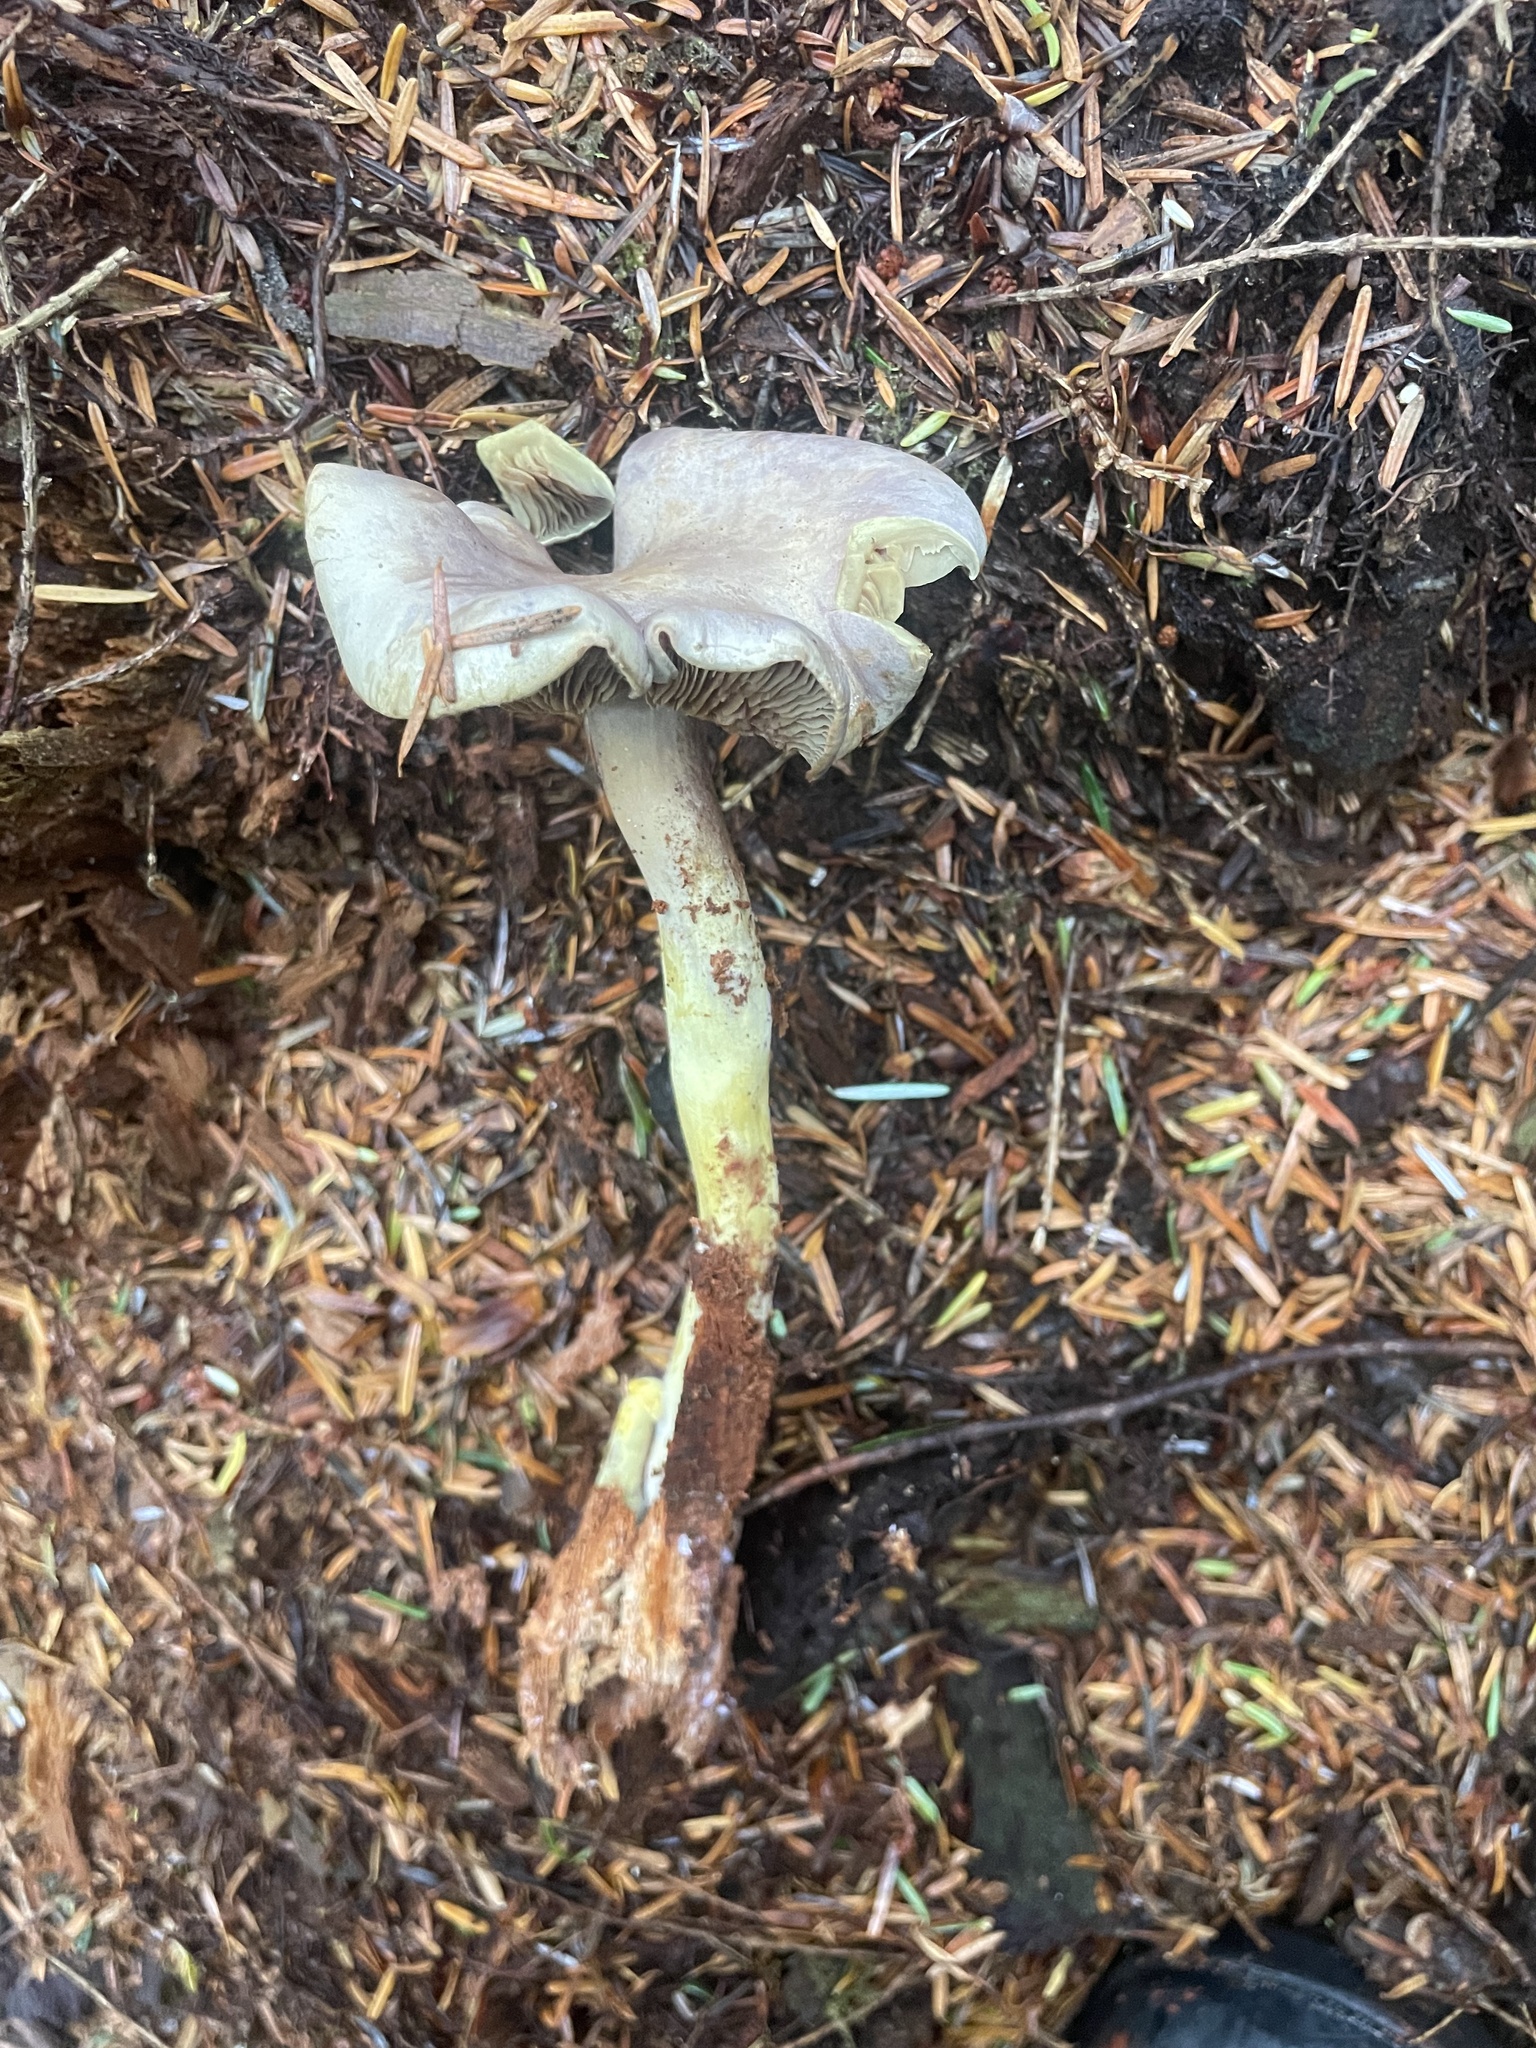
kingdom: Fungi
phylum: Basidiomycota
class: Agaricomycetes
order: Agaricales
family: Hymenogastraceae
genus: Gymnopilus
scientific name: Gymnopilus punctifolius
